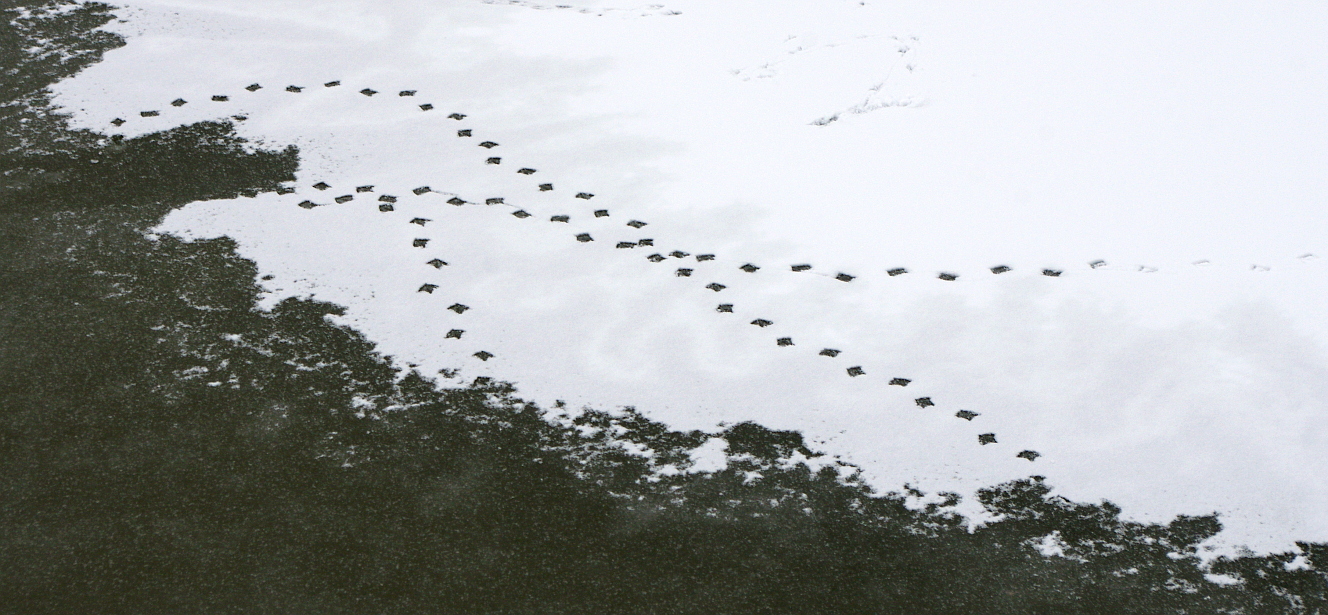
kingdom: Animalia
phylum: Chordata
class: Aves
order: Anseriformes
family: Anatidae
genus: Anas
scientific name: Anas platyrhynchos
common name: Mallard
